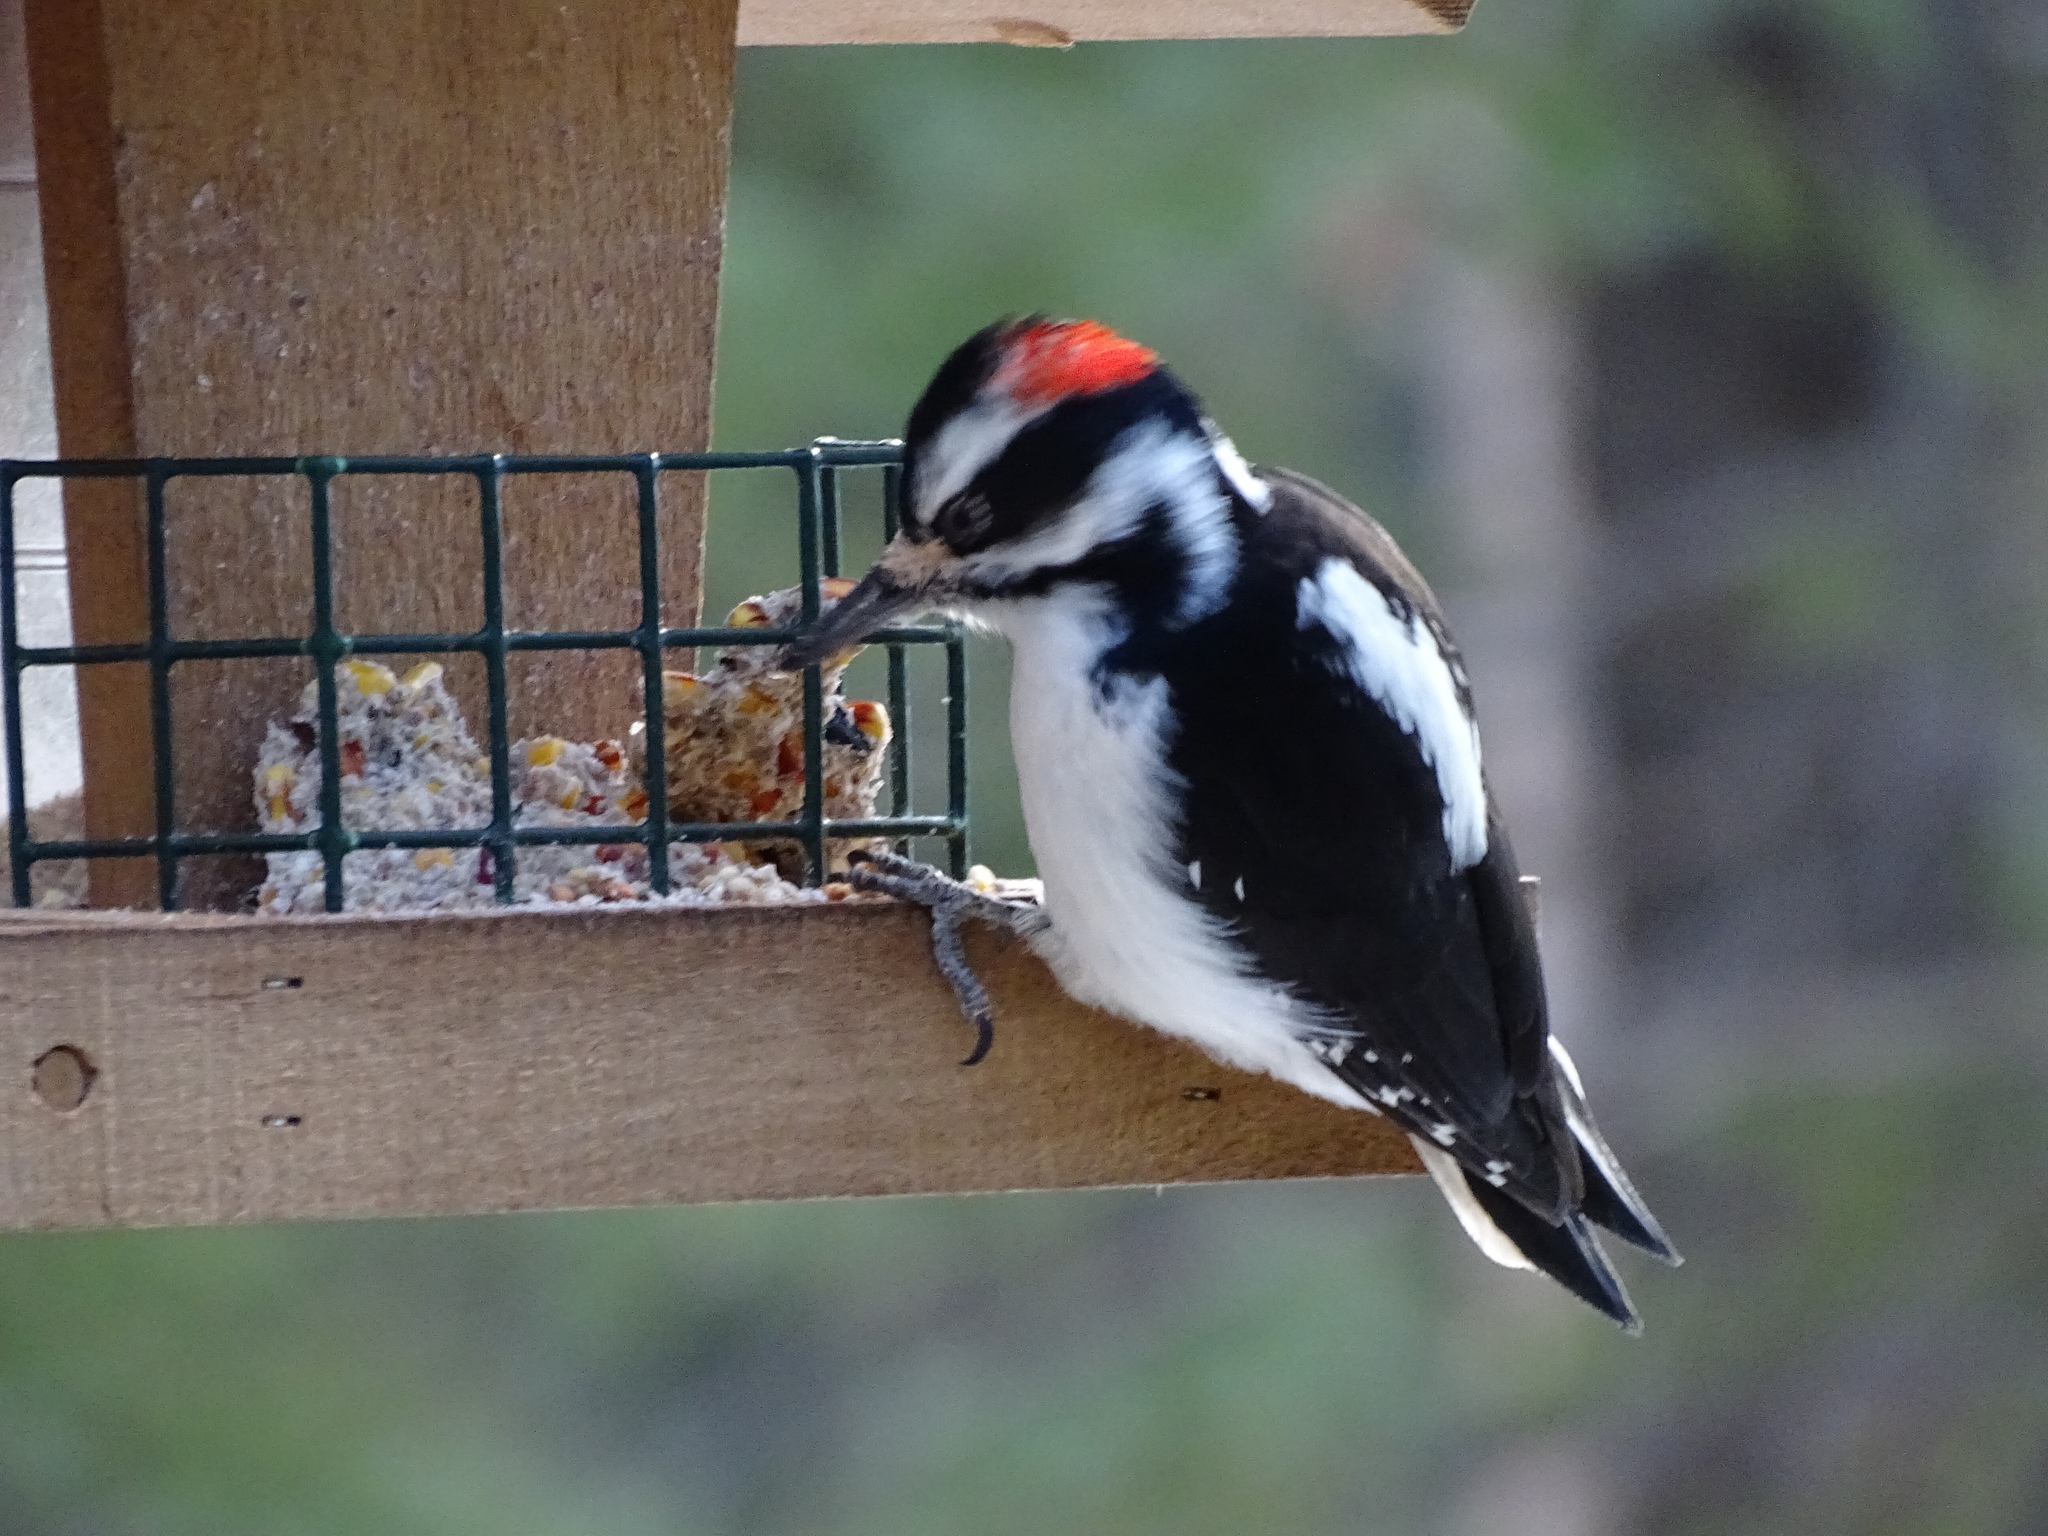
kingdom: Animalia
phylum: Chordata
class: Aves
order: Piciformes
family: Picidae
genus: Leuconotopicus
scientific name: Leuconotopicus villosus
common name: Hairy woodpecker
